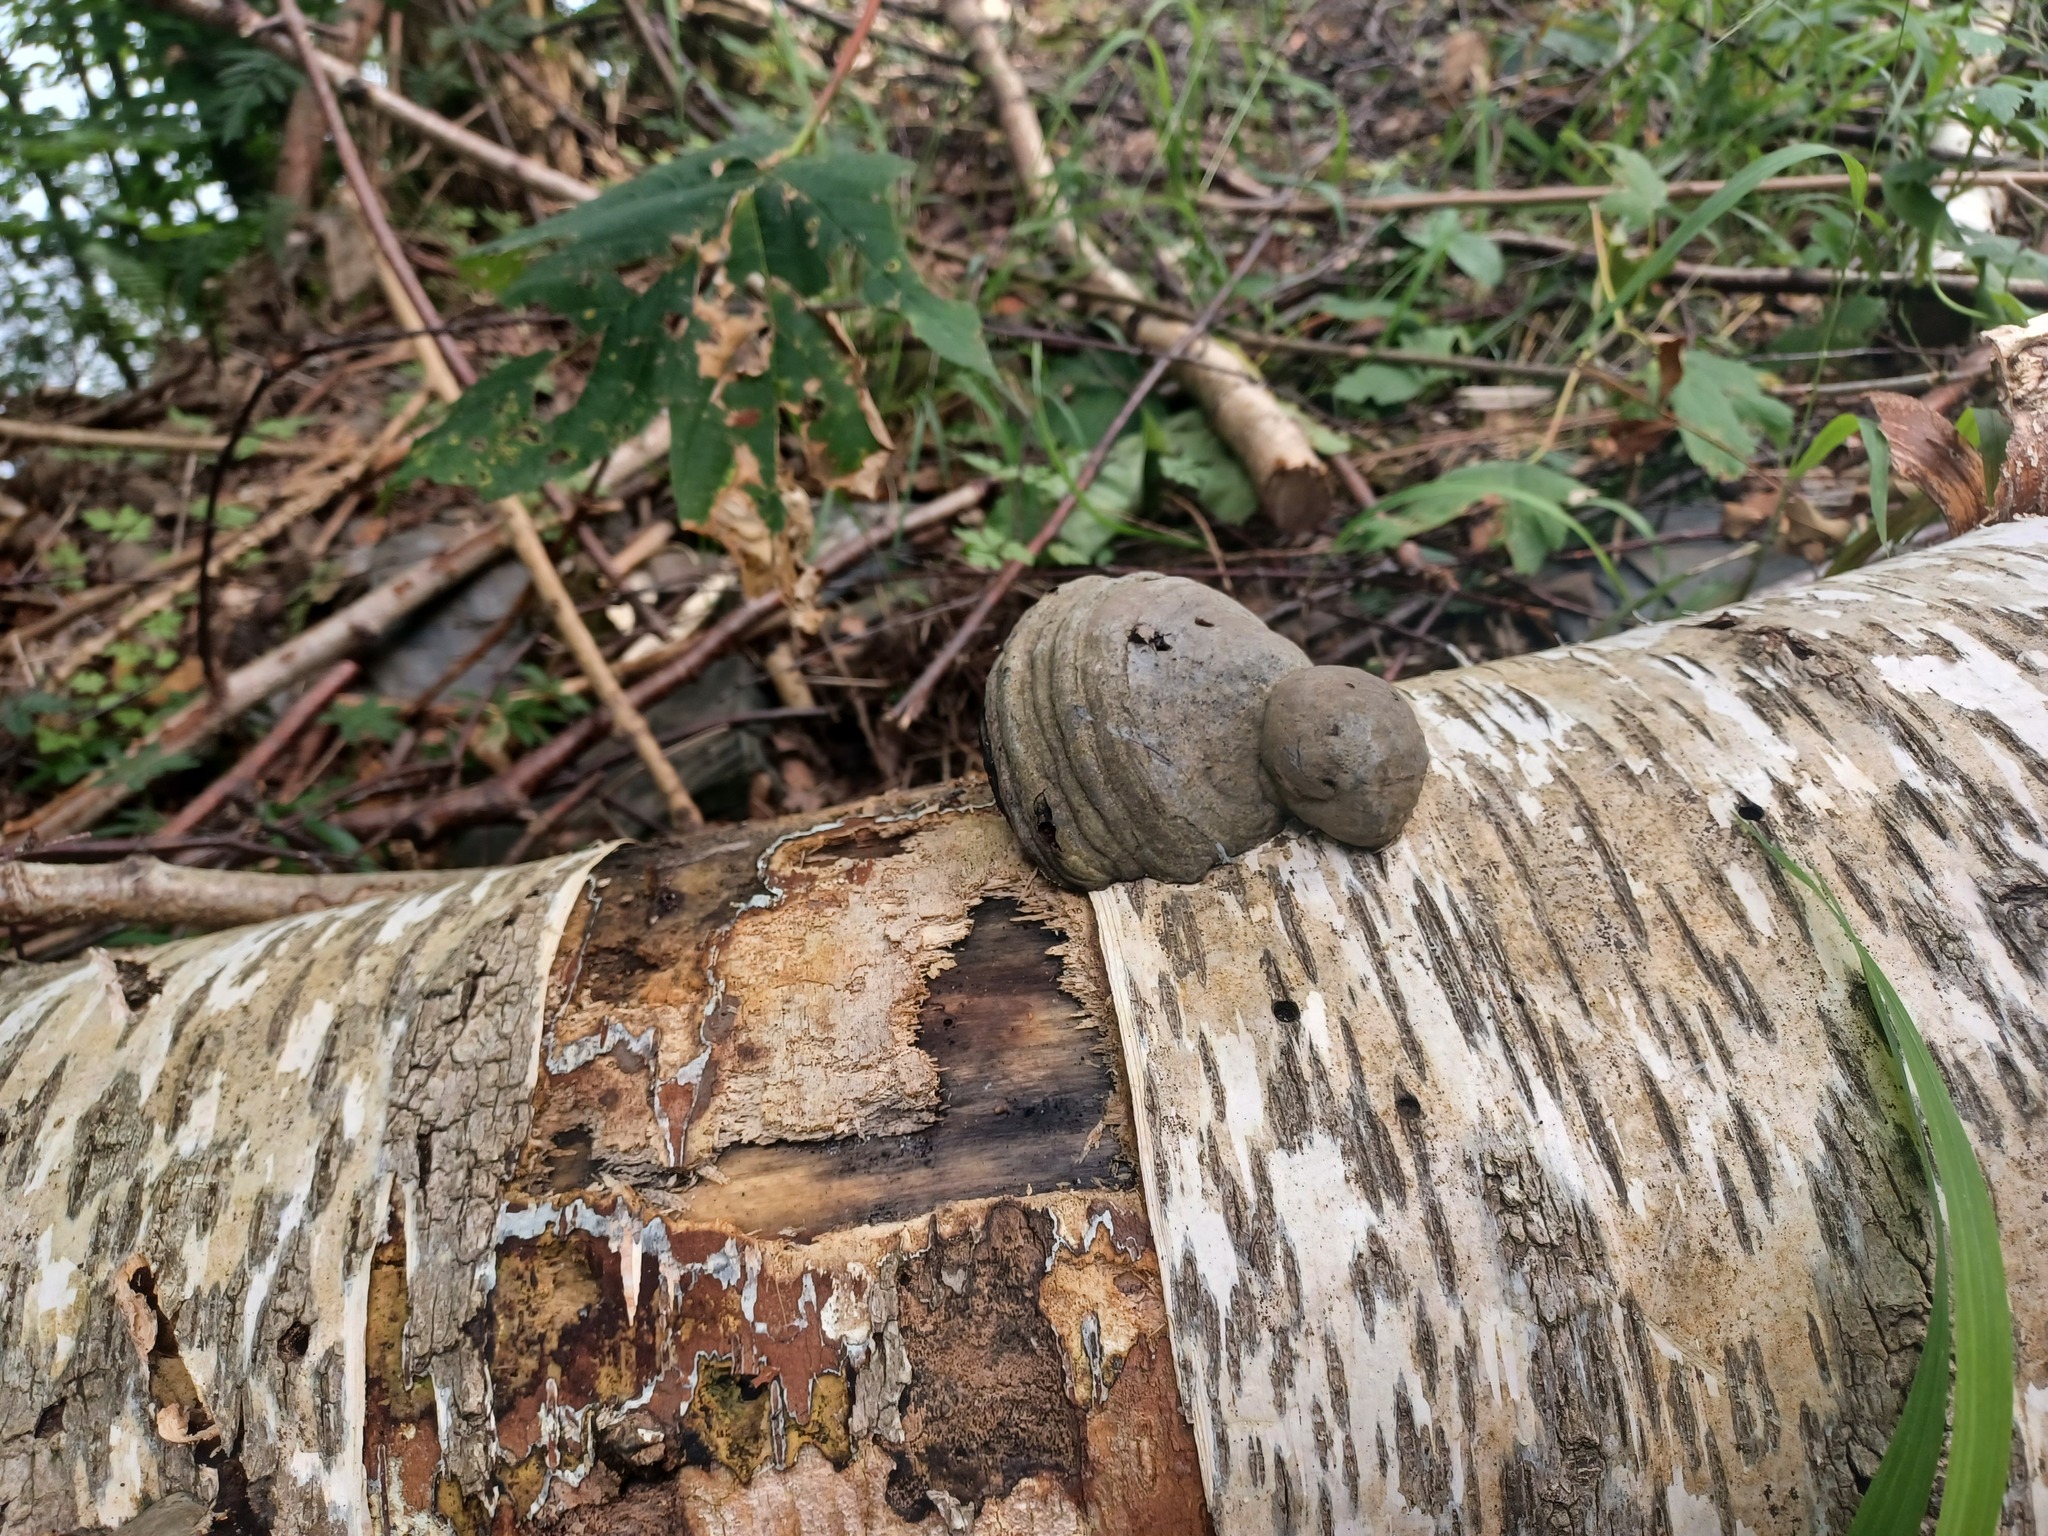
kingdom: Fungi
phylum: Basidiomycota
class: Agaricomycetes
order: Polyporales
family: Polyporaceae
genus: Fomes
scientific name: Fomes fomentarius
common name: Hoof fungus
